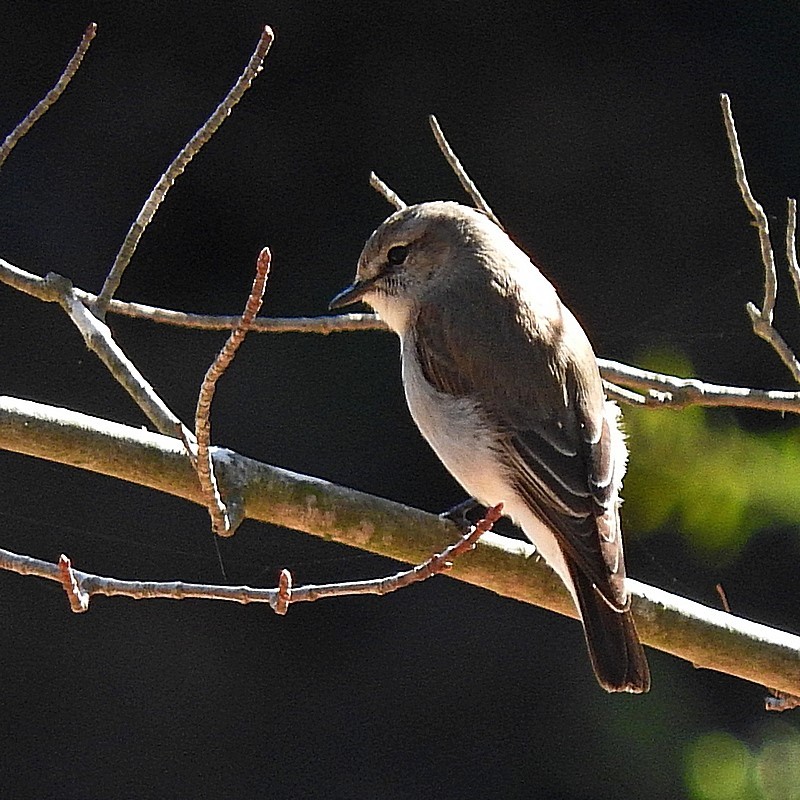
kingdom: Animalia
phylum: Chordata
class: Aves
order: Passeriformes
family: Petroicidae
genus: Microeca
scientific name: Microeca fascinans
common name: Jacky winter
